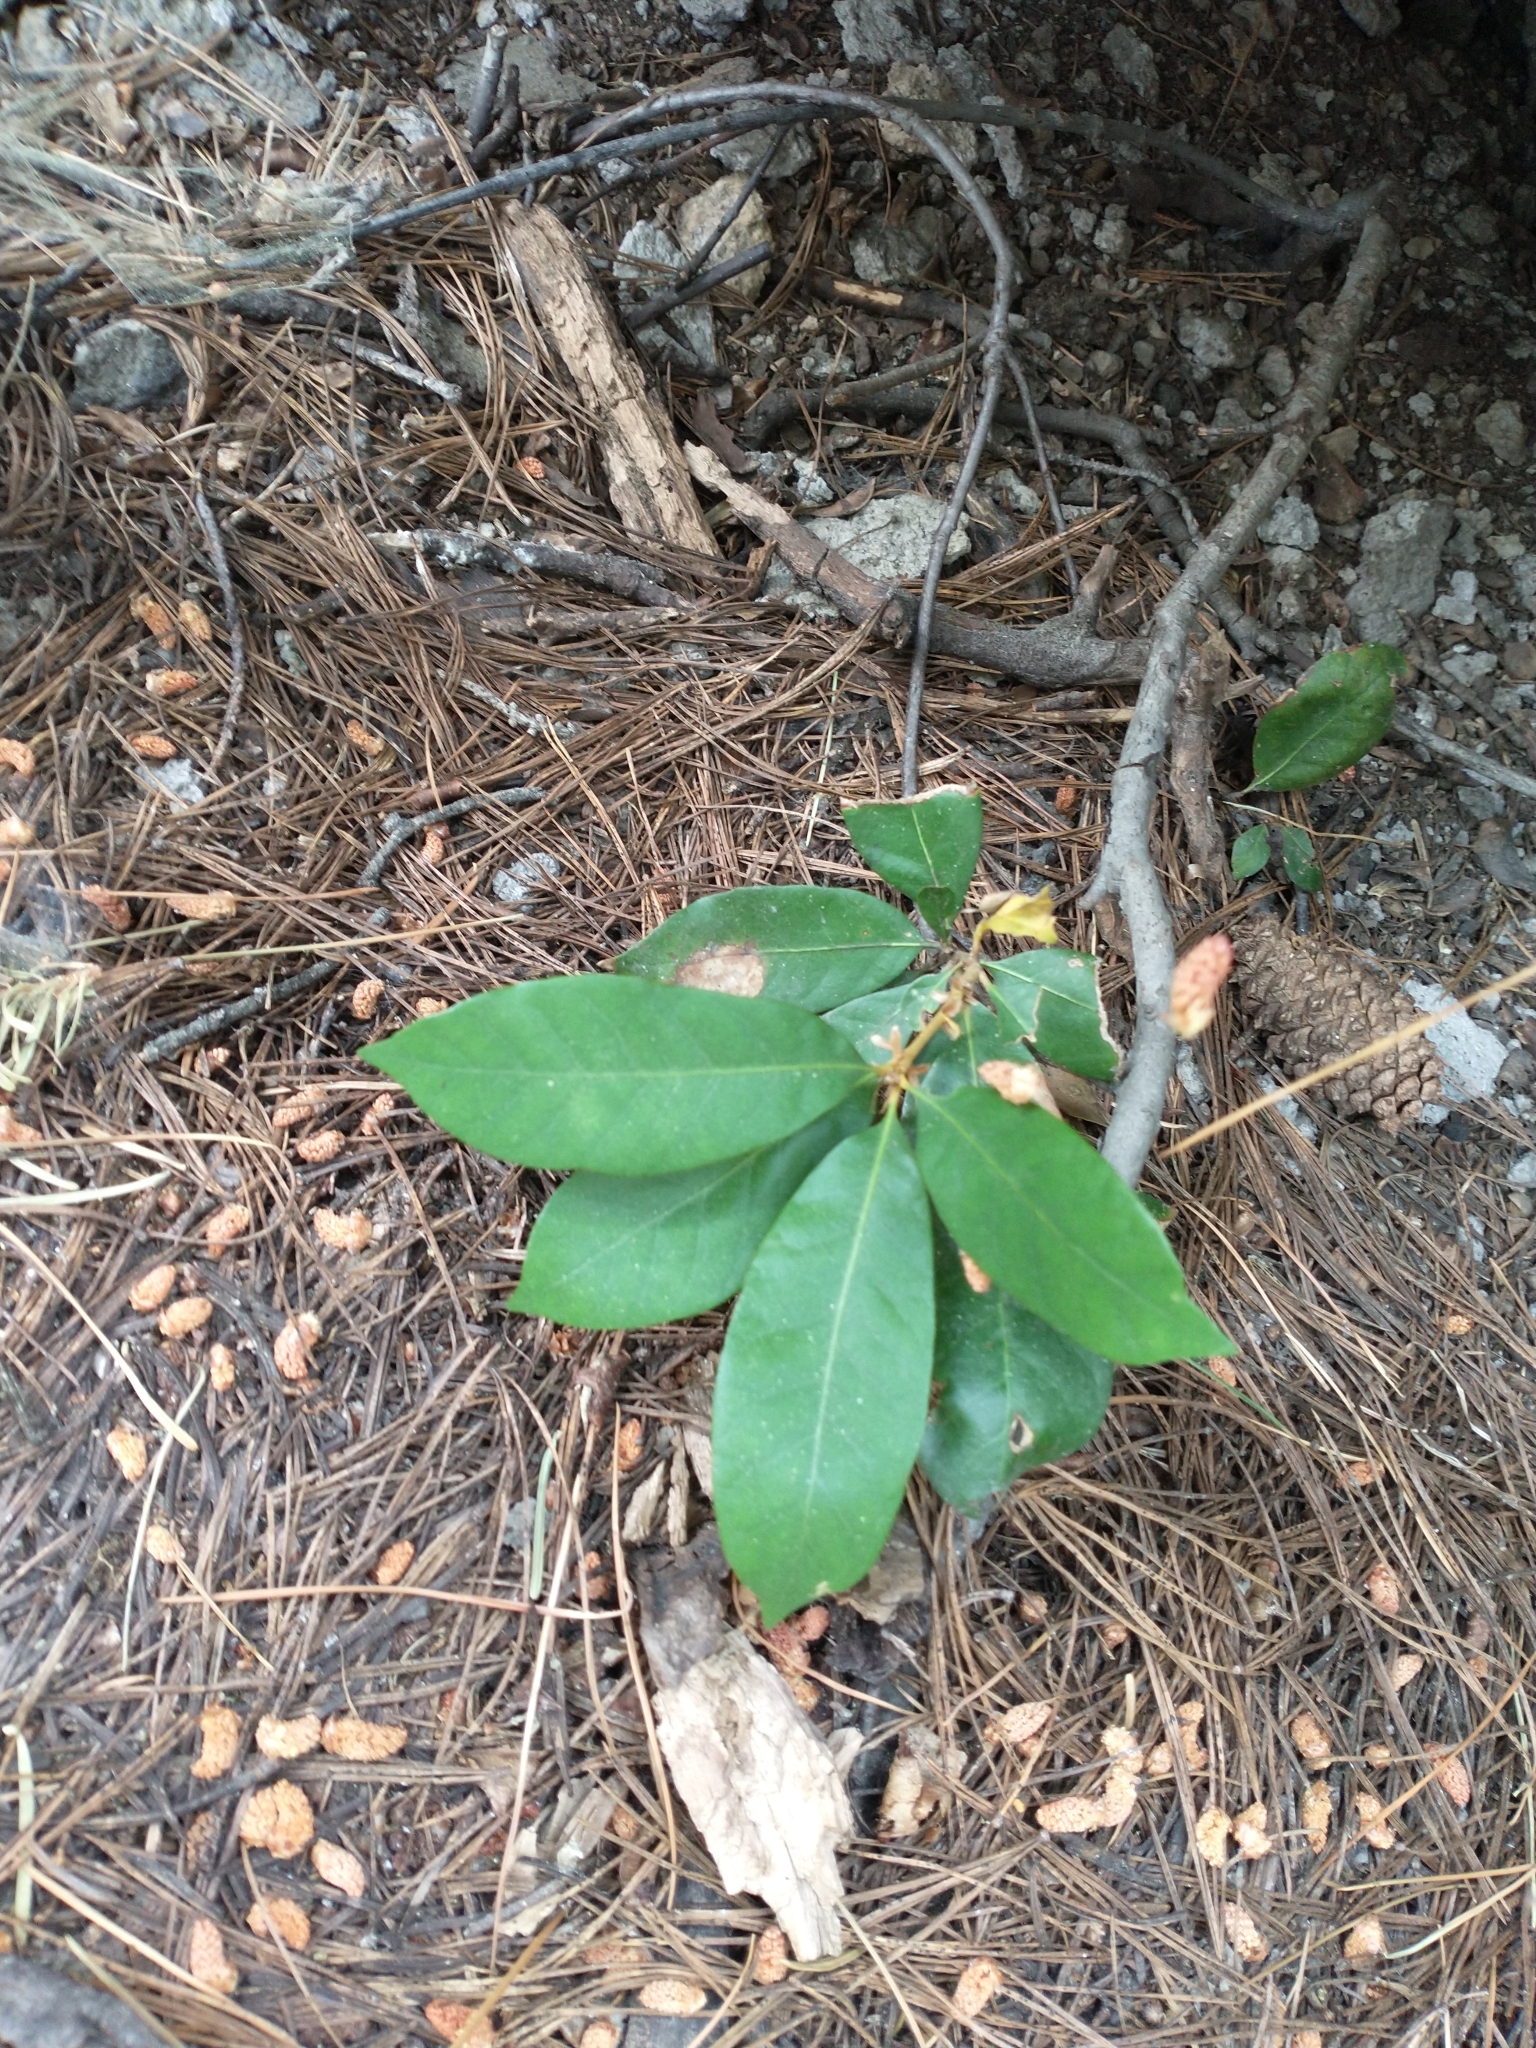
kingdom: Plantae
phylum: Tracheophyta
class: Magnoliopsida
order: Fagales
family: Fagaceae
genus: Chrysolepis
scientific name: Chrysolepis chrysophylla
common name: Giant chinquapin
